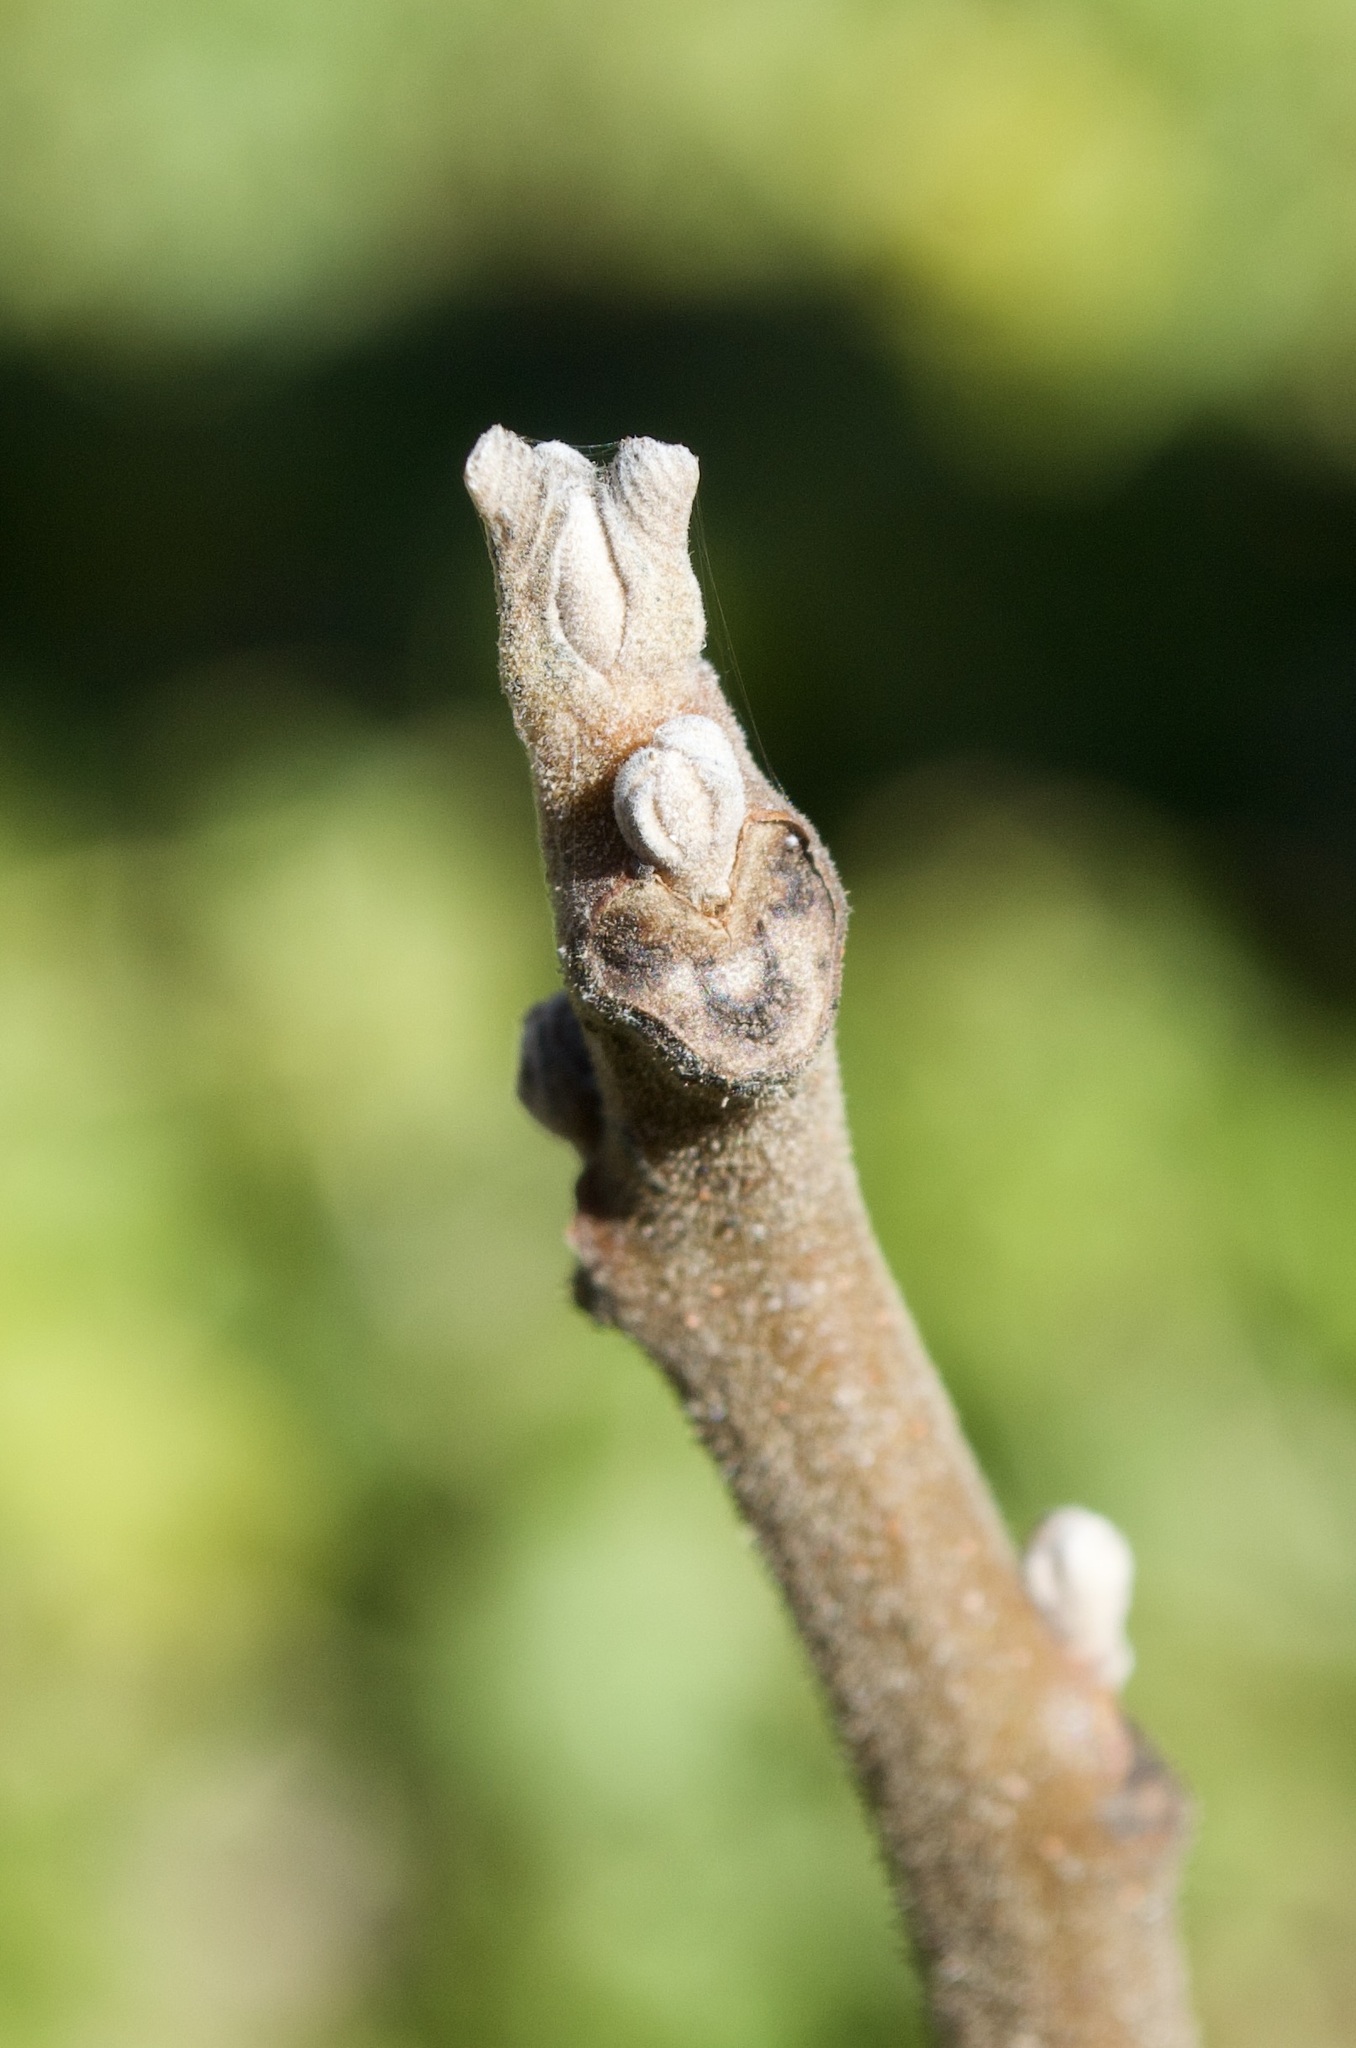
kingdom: Plantae
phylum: Tracheophyta
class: Magnoliopsida
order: Fagales
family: Juglandaceae
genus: Juglans
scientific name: Juglans nigra
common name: Black walnut
